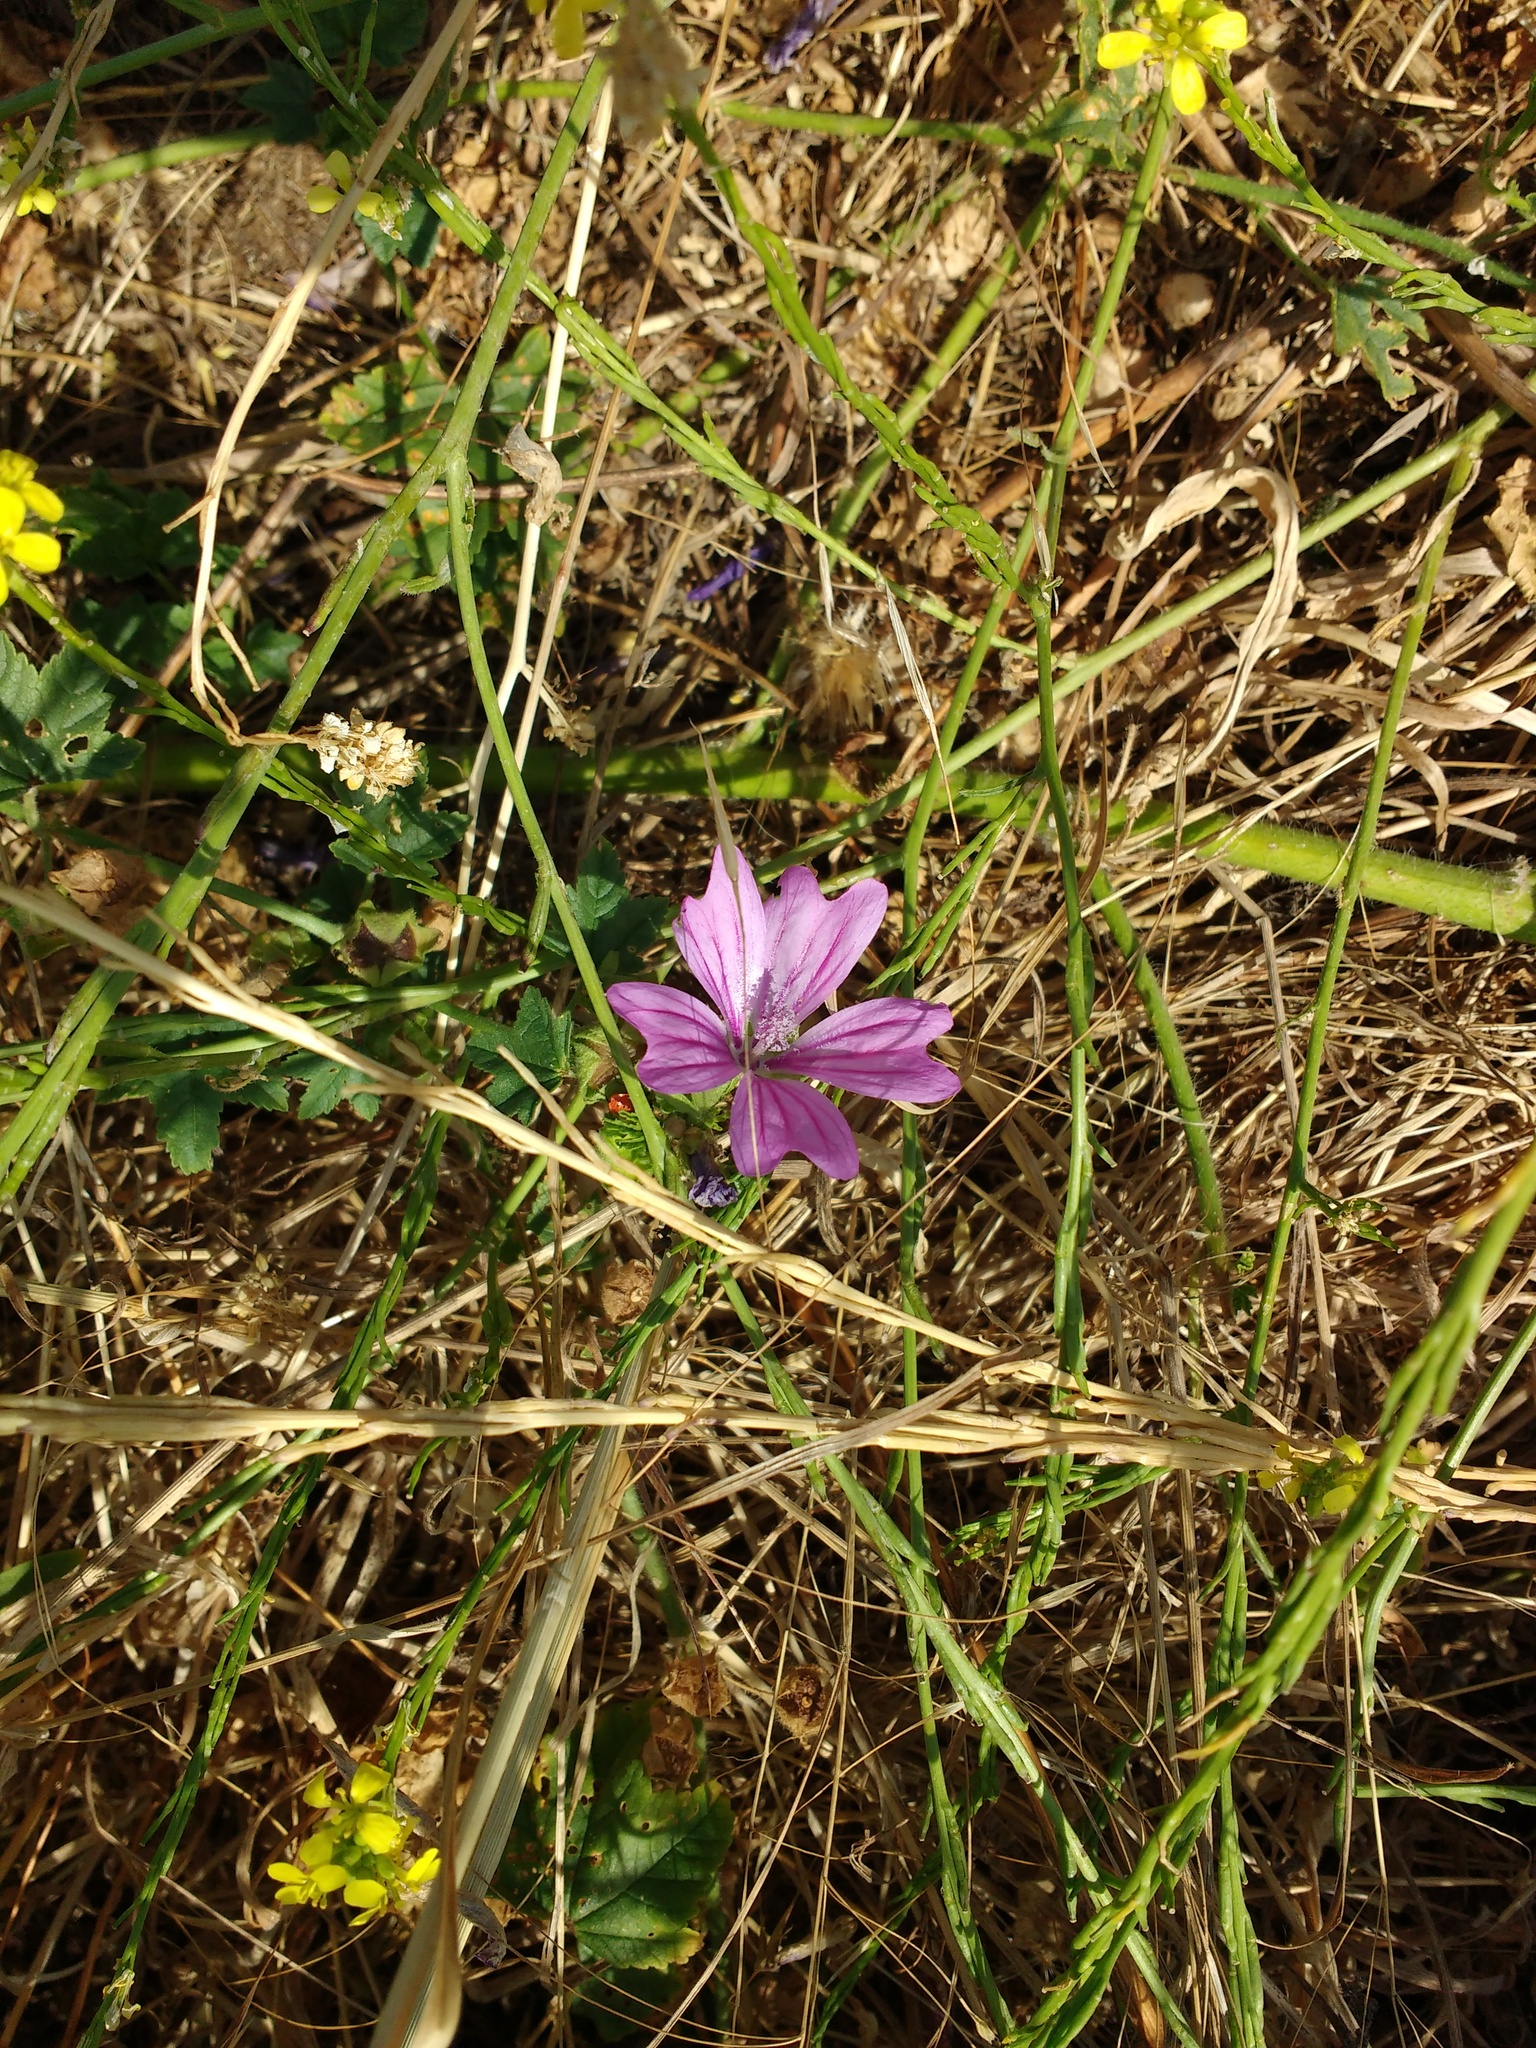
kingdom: Plantae
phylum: Tracheophyta
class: Magnoliopsida
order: Malvales
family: Malvaceae
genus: Malva
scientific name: Malva sylvestris
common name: Common mallow
